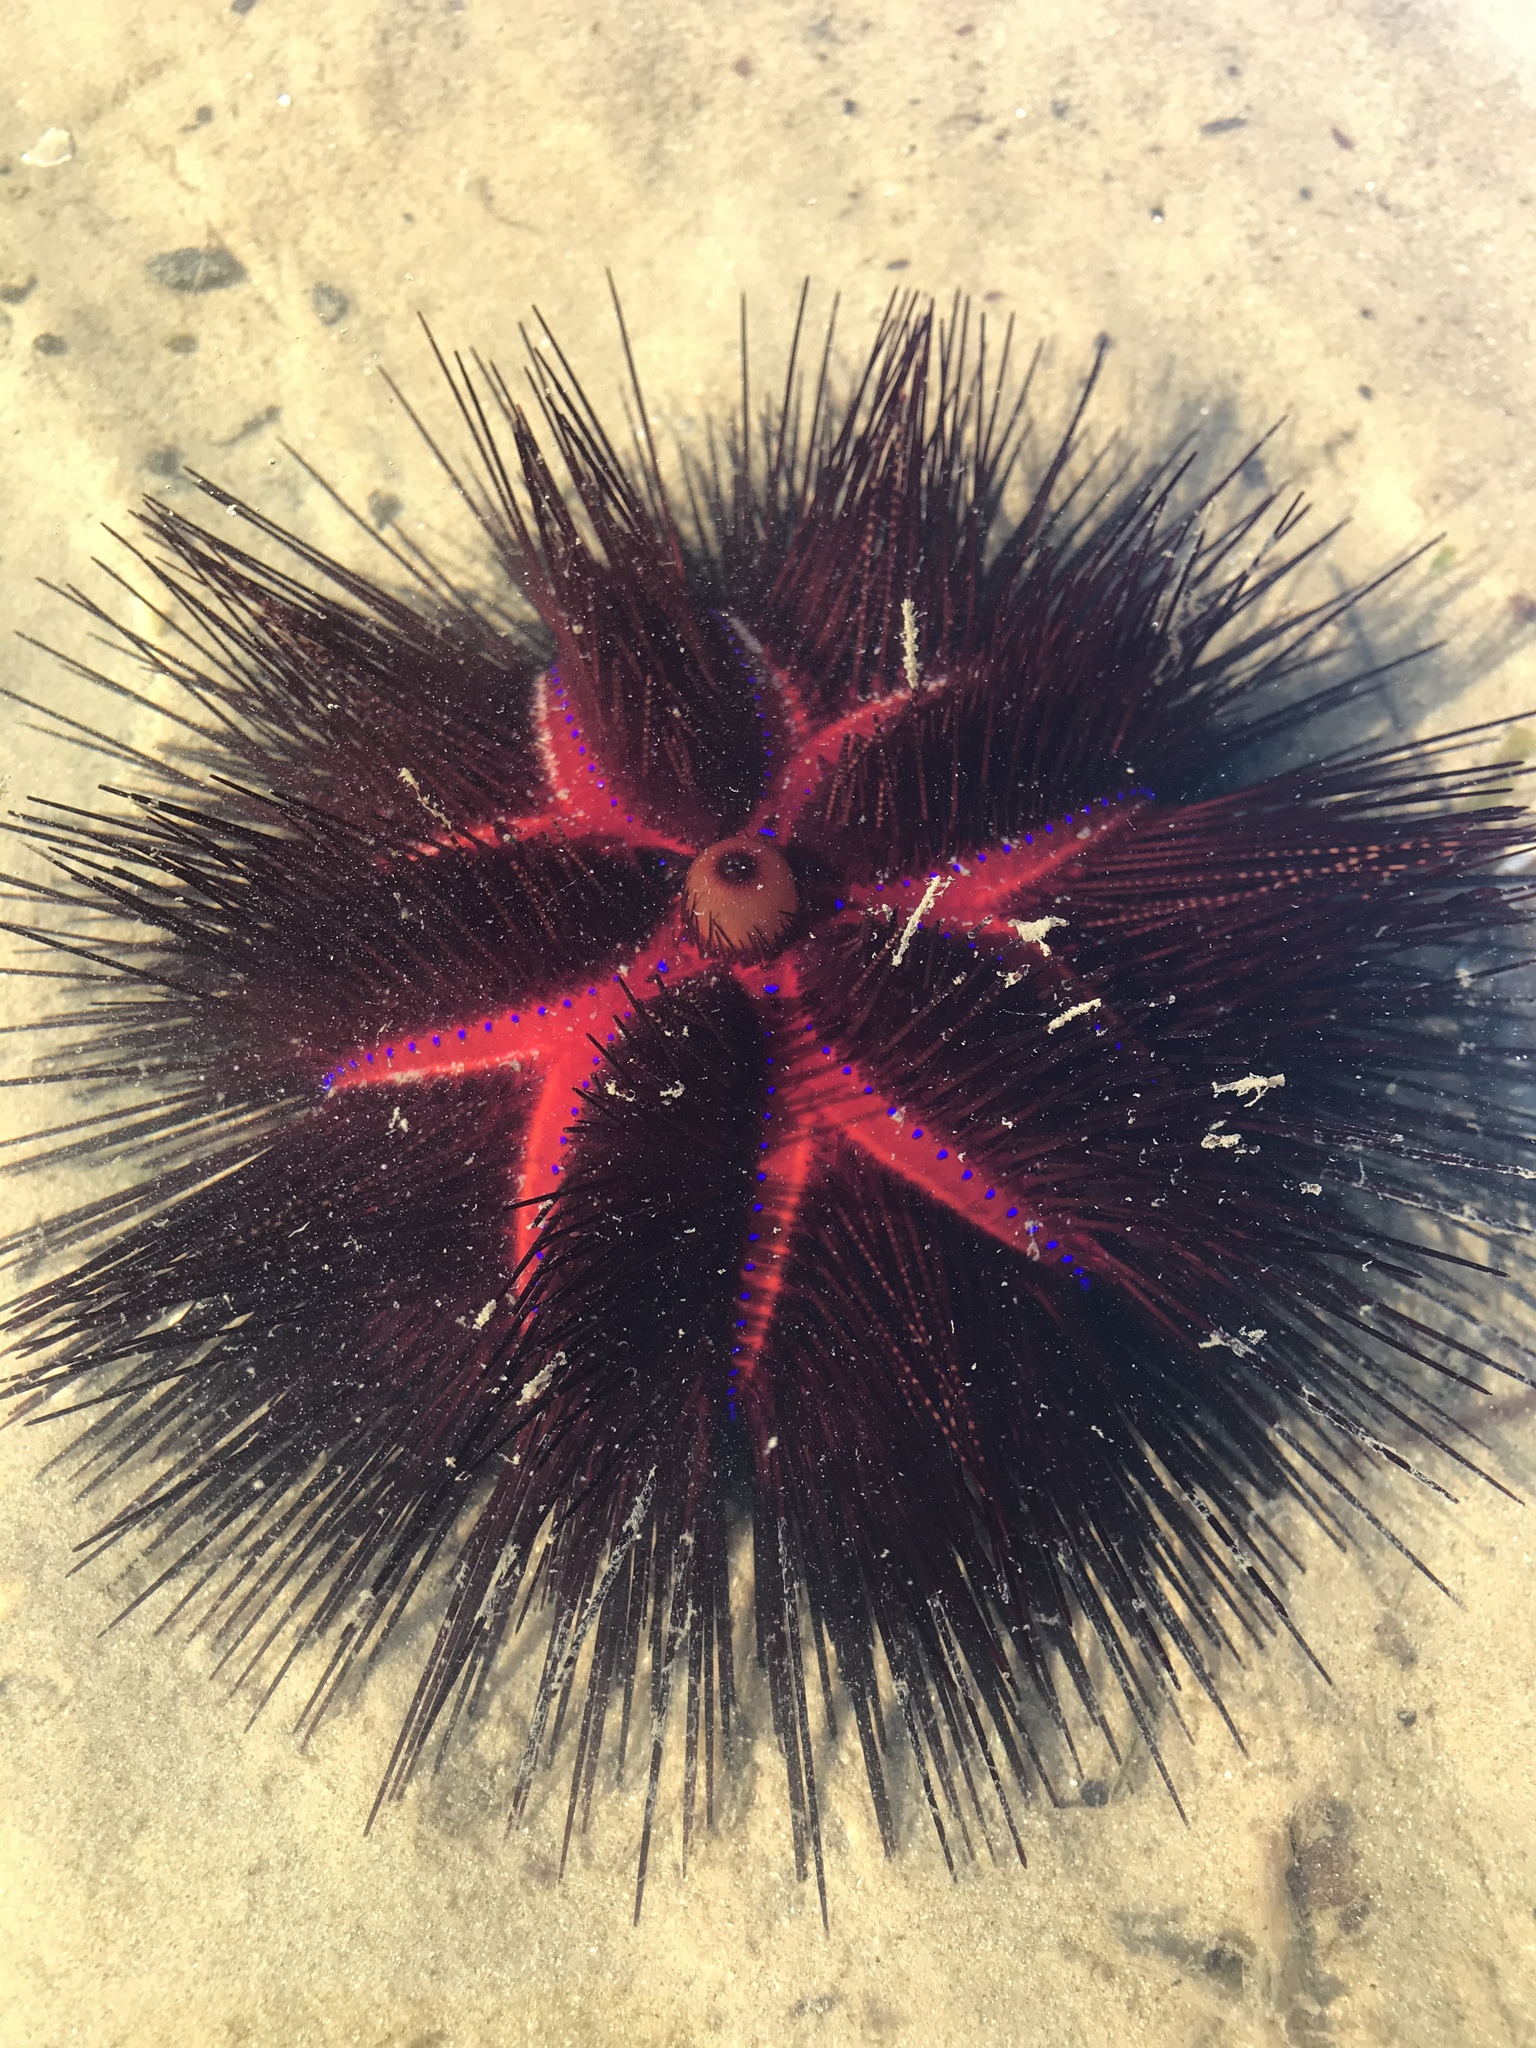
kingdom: Animalia
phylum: Echinodermata
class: Echinoidea
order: Diadematoida
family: Diadematidae
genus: Astropyga
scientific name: Astropyga radiata
